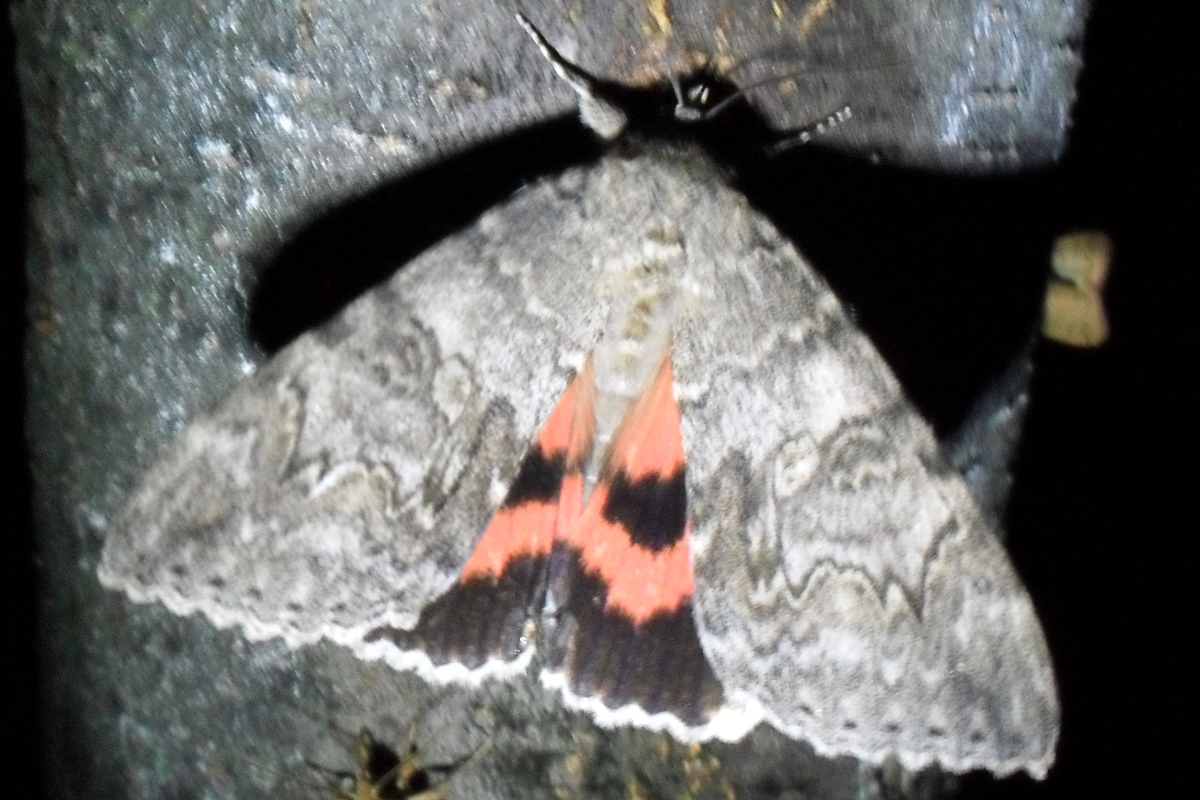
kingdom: Animalia
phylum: Arthropoda
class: Insecta
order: Lepidoptera
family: Erebidae
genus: Catocala
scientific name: Catocala nupta
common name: Red underwing
